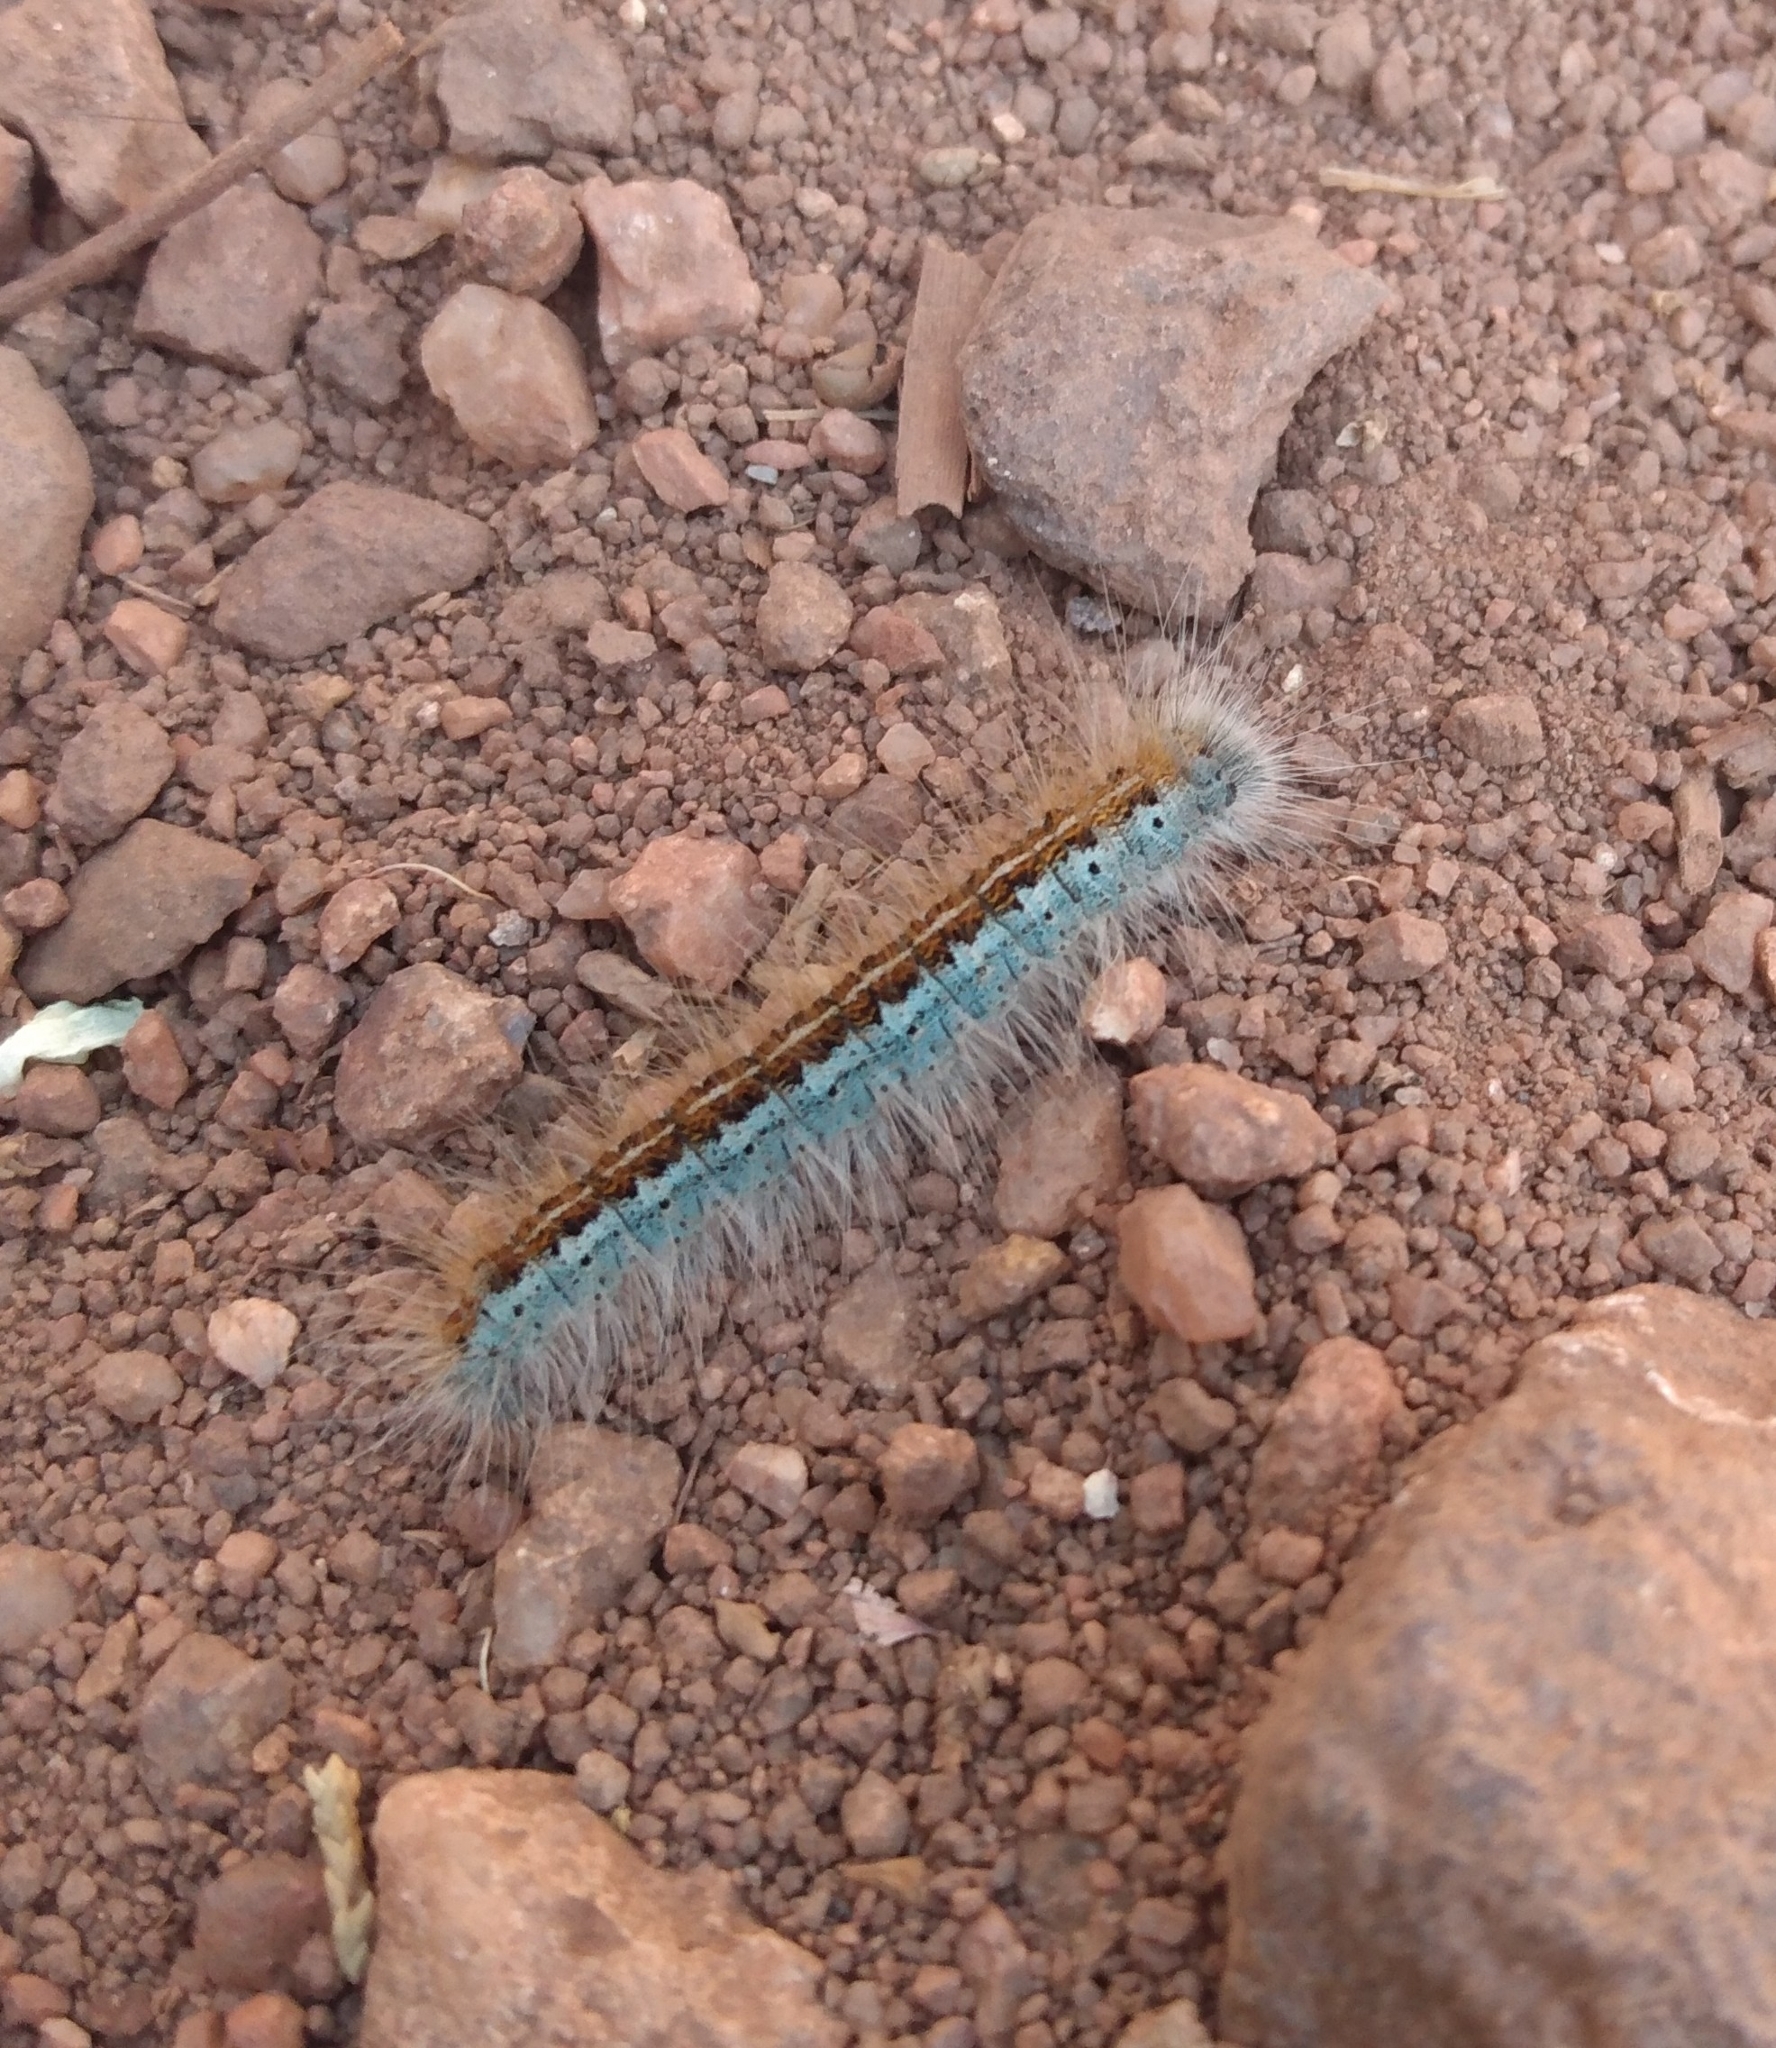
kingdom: Animalia
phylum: Arthropoda
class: Insecta
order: Lepidoptera
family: Lasiocampidae
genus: Malacosoma
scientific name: Malacosoma californica
